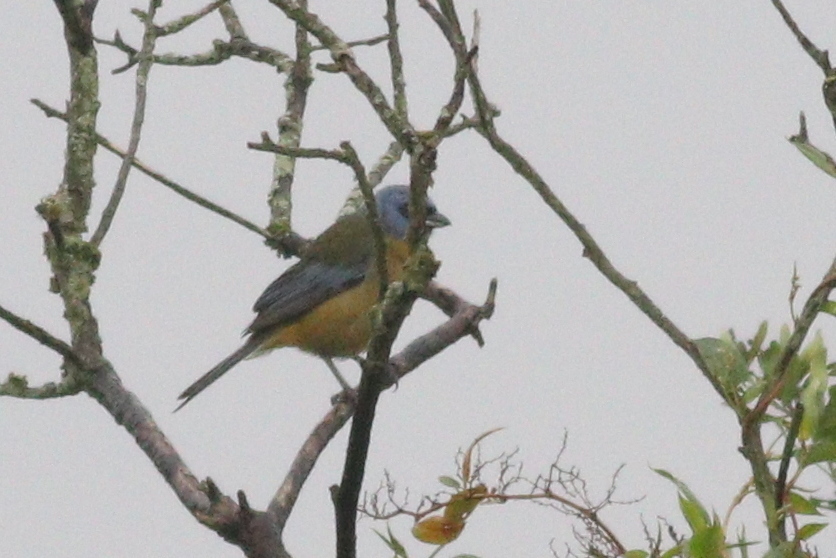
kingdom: Animalia
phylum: Chordata
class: Aves
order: Passeriformes
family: Thraupidae
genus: Rauenia
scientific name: Rauenia bonariensis
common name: Blue-and-yellow tanager
